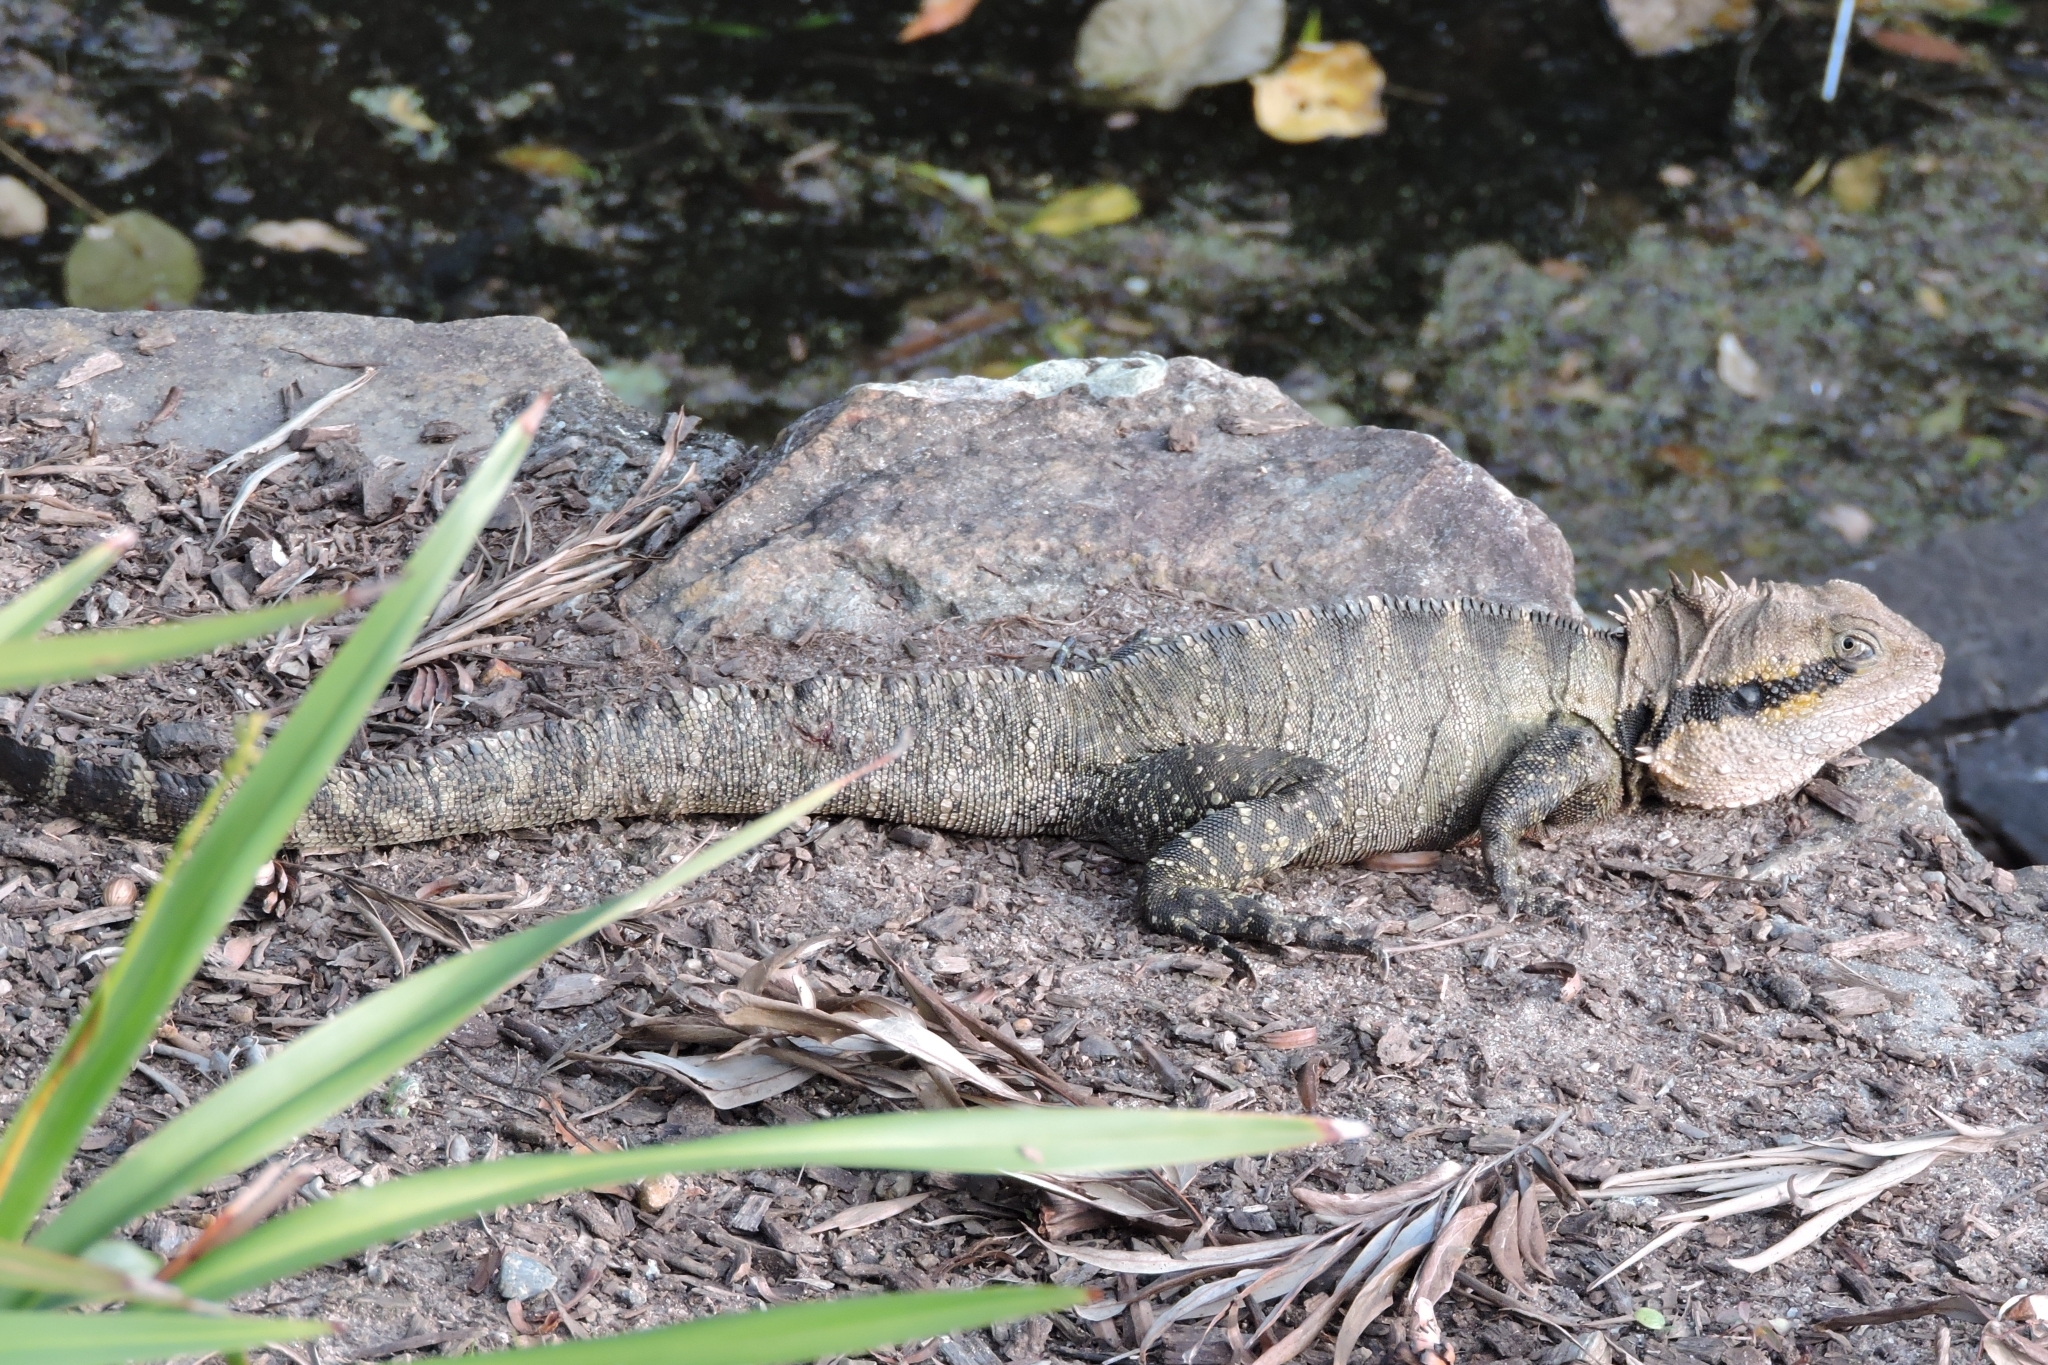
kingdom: Animalia
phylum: Chordata
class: Squamata
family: Agamidae
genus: Intellagama
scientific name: Intellagama lesueurii
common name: Eastern water dragon
